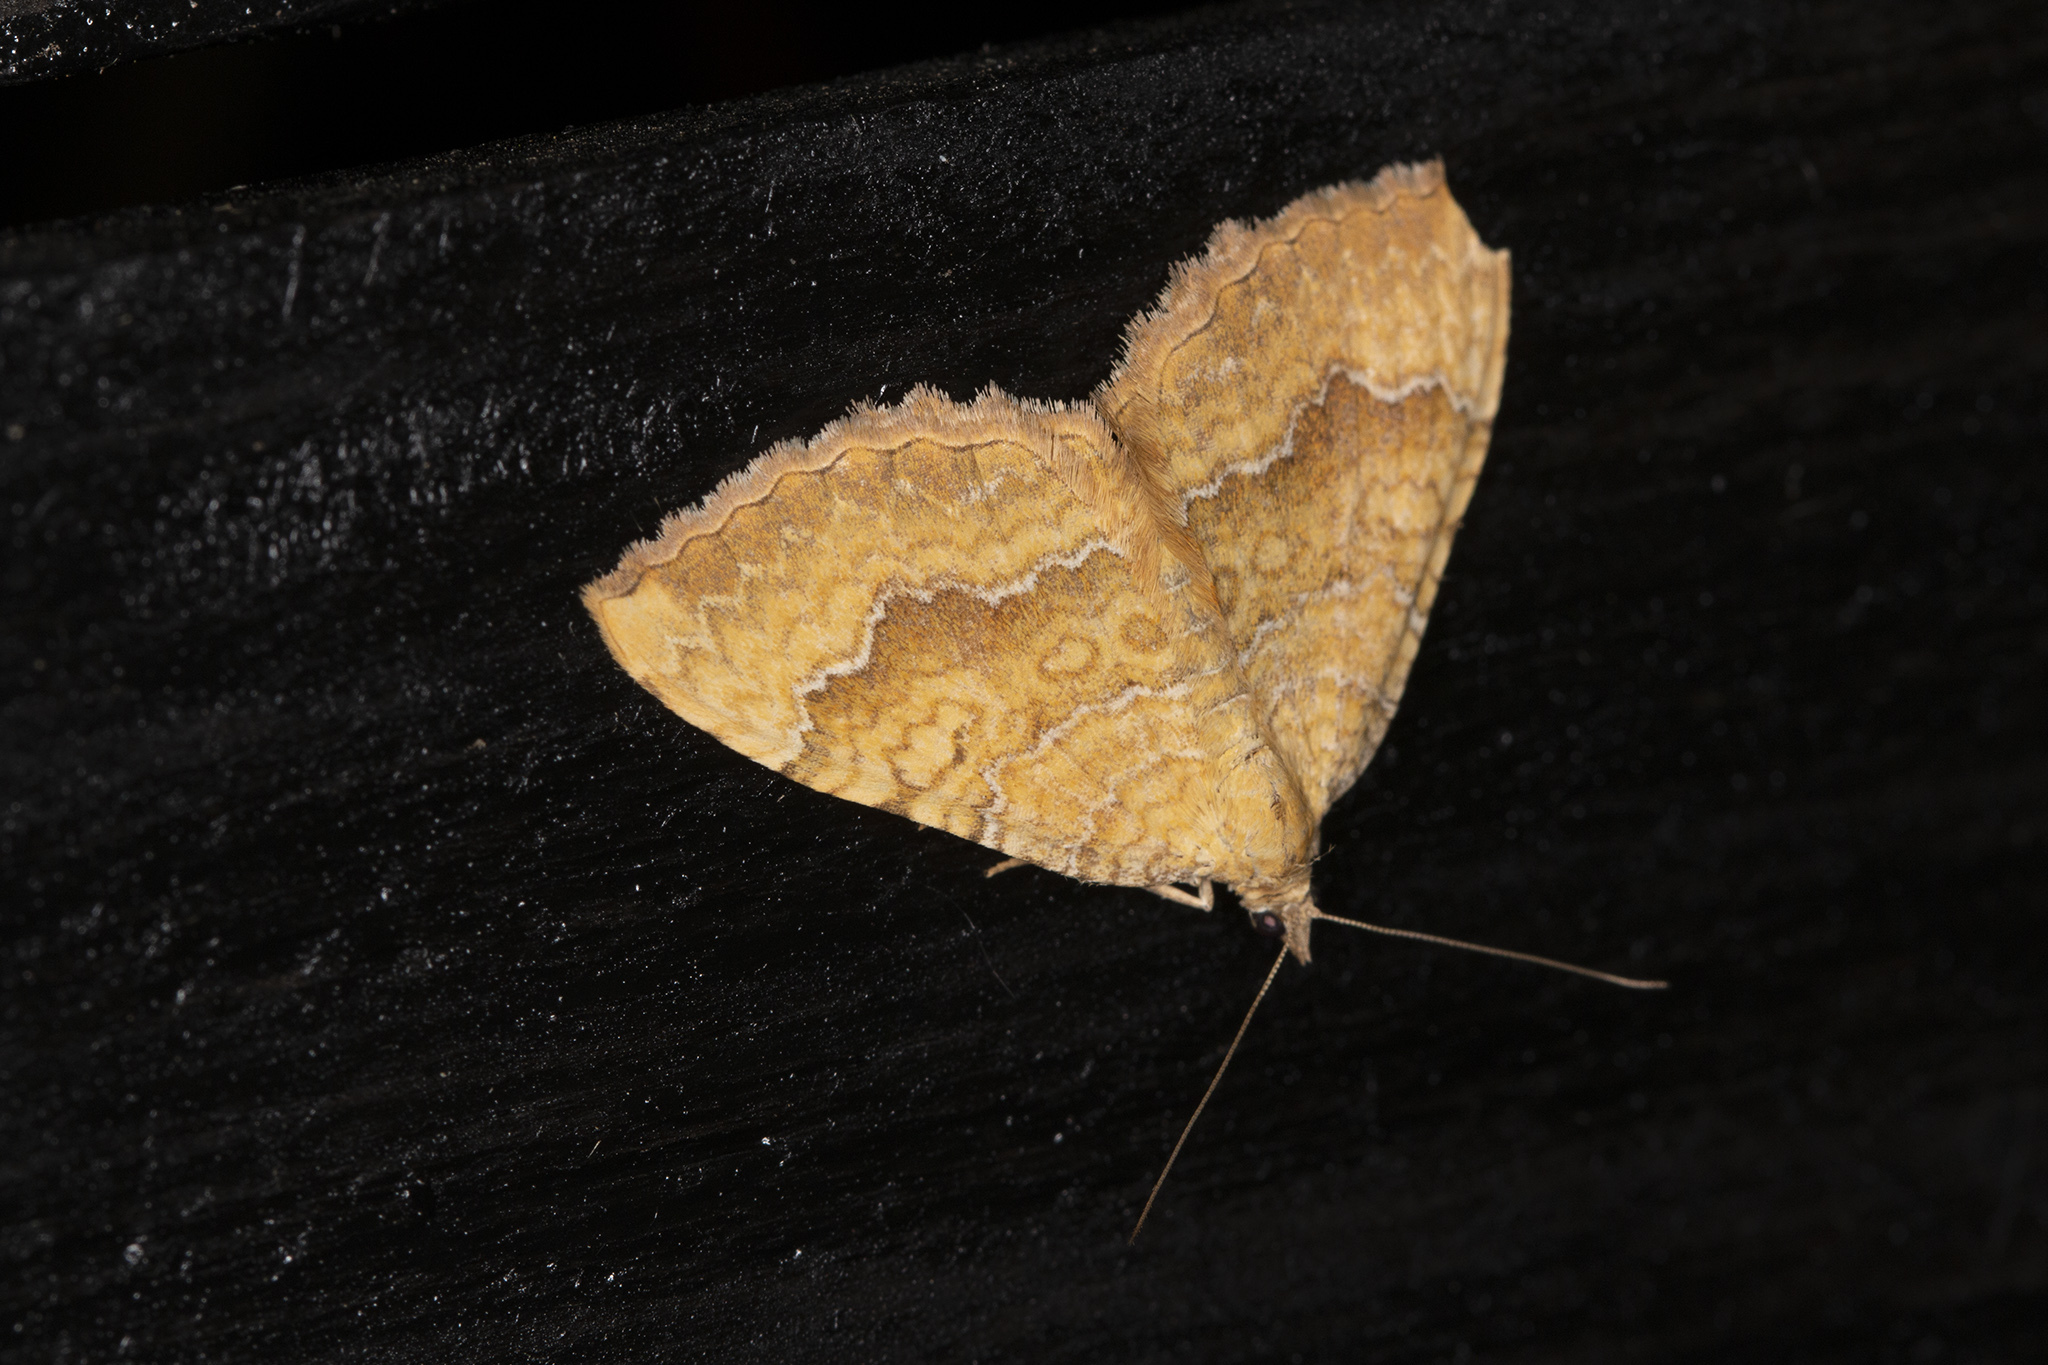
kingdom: Animalia
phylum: Arthropoda
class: Insecta
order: Lepidoptera
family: Geometridae
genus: Camptogramma
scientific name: Camptogramma bilineata
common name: Yellow shell
